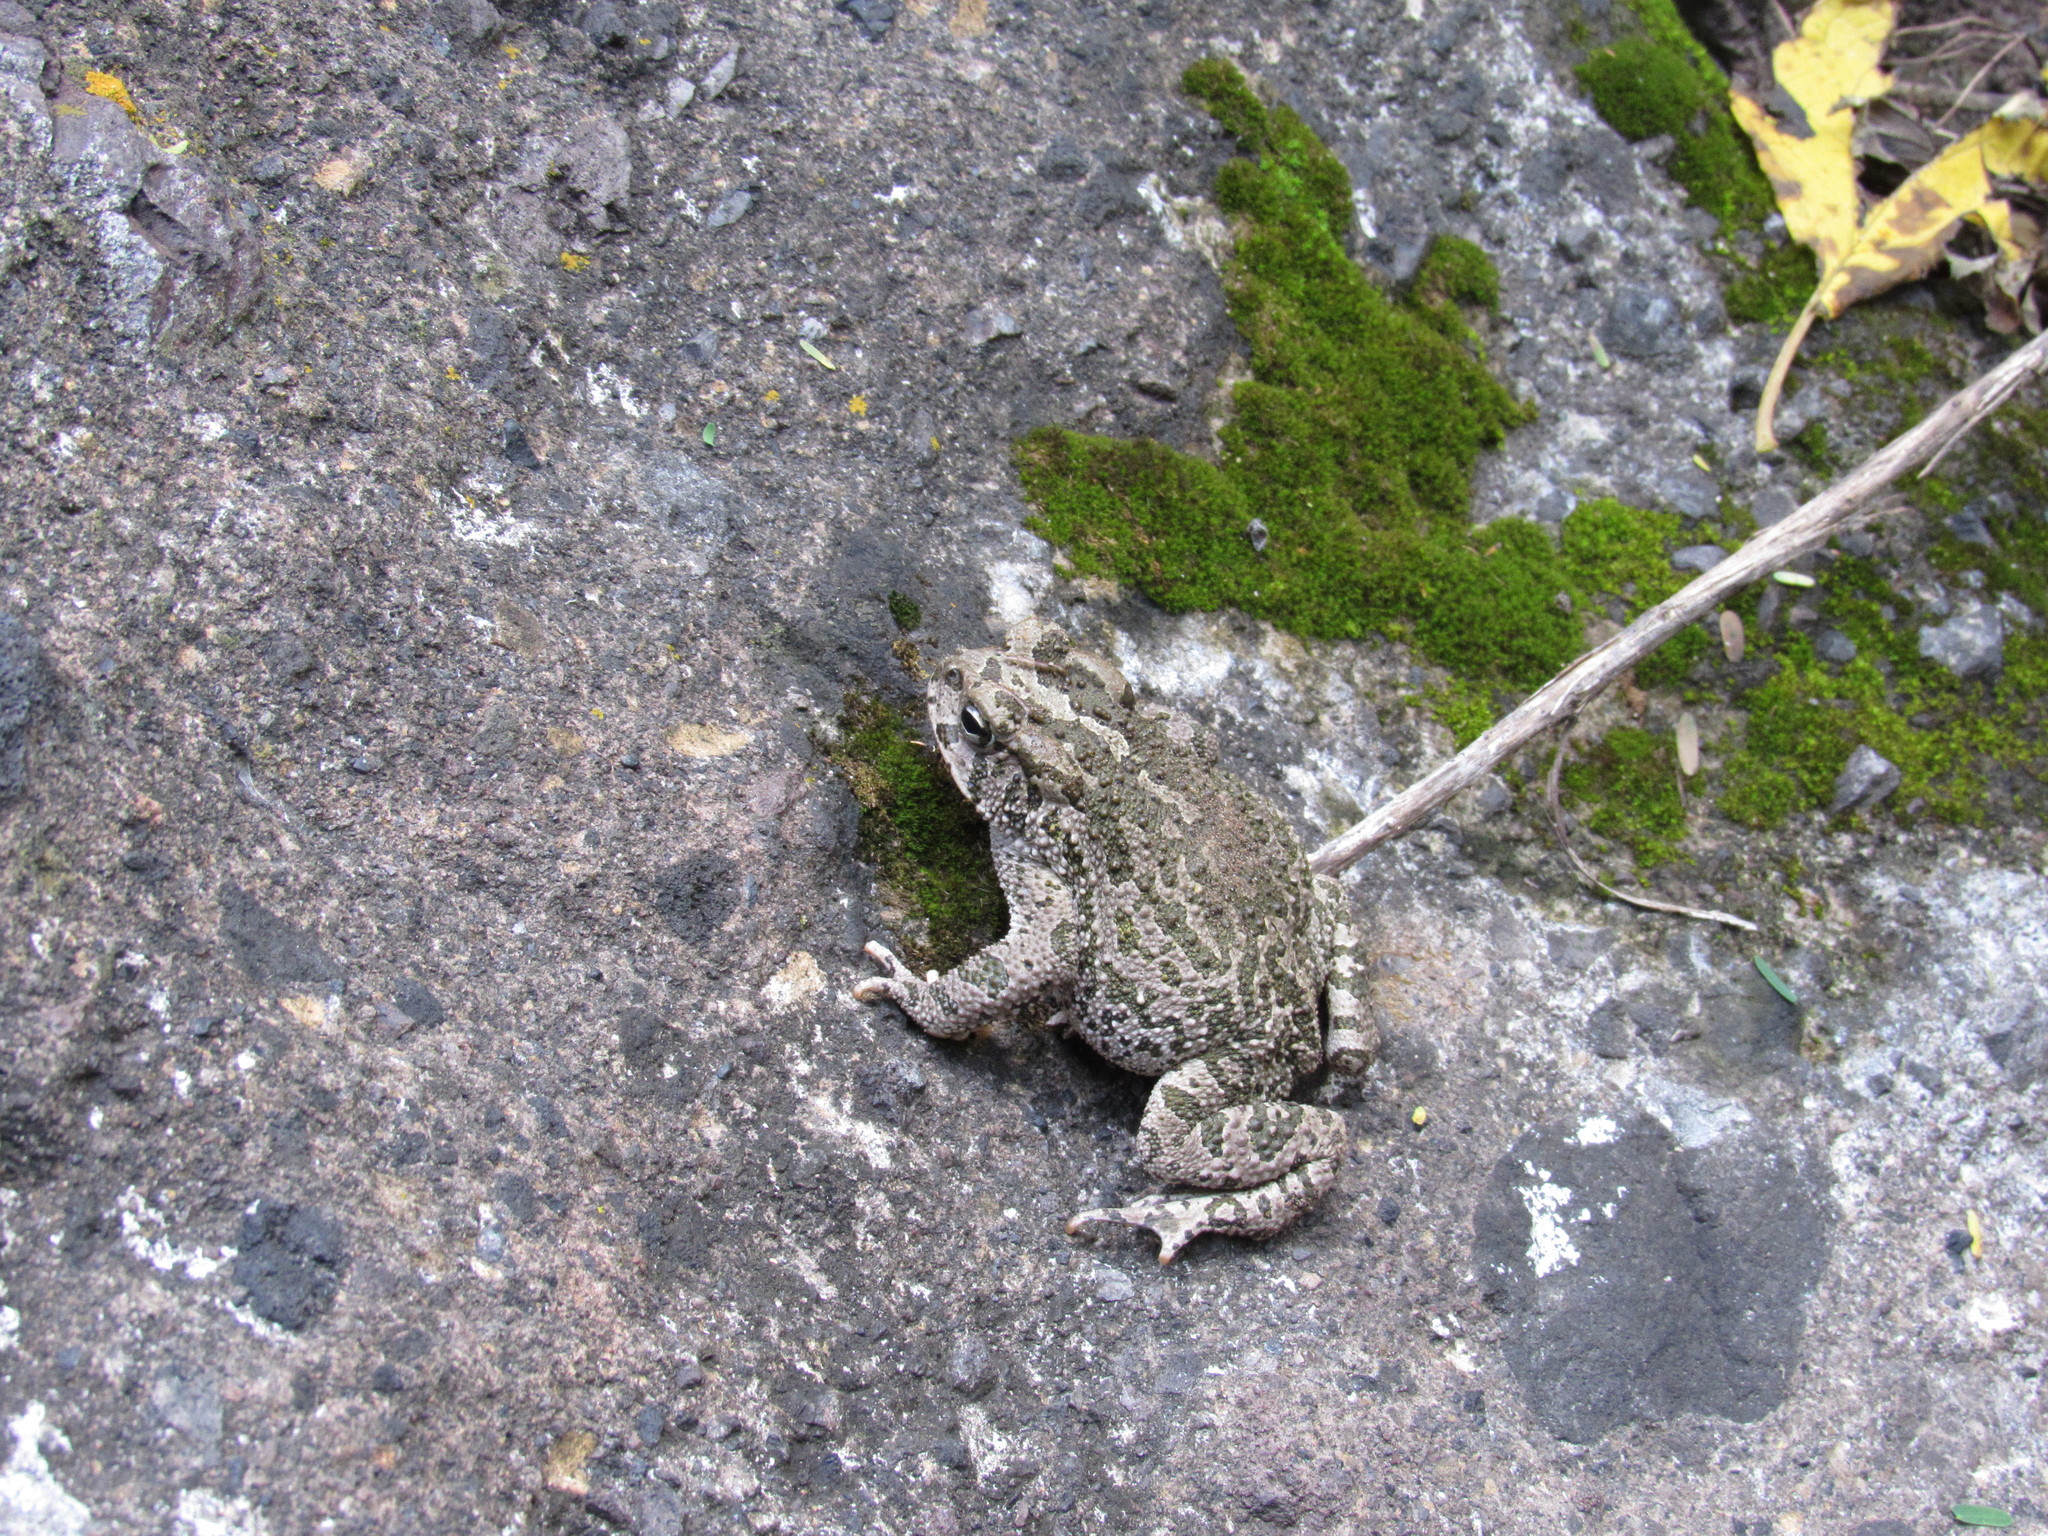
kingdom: Animalia
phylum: Chordata
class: Amphibia
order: Anura
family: Bufonidae
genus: Incilius
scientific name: Incilius occidentalis
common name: Pine toad
